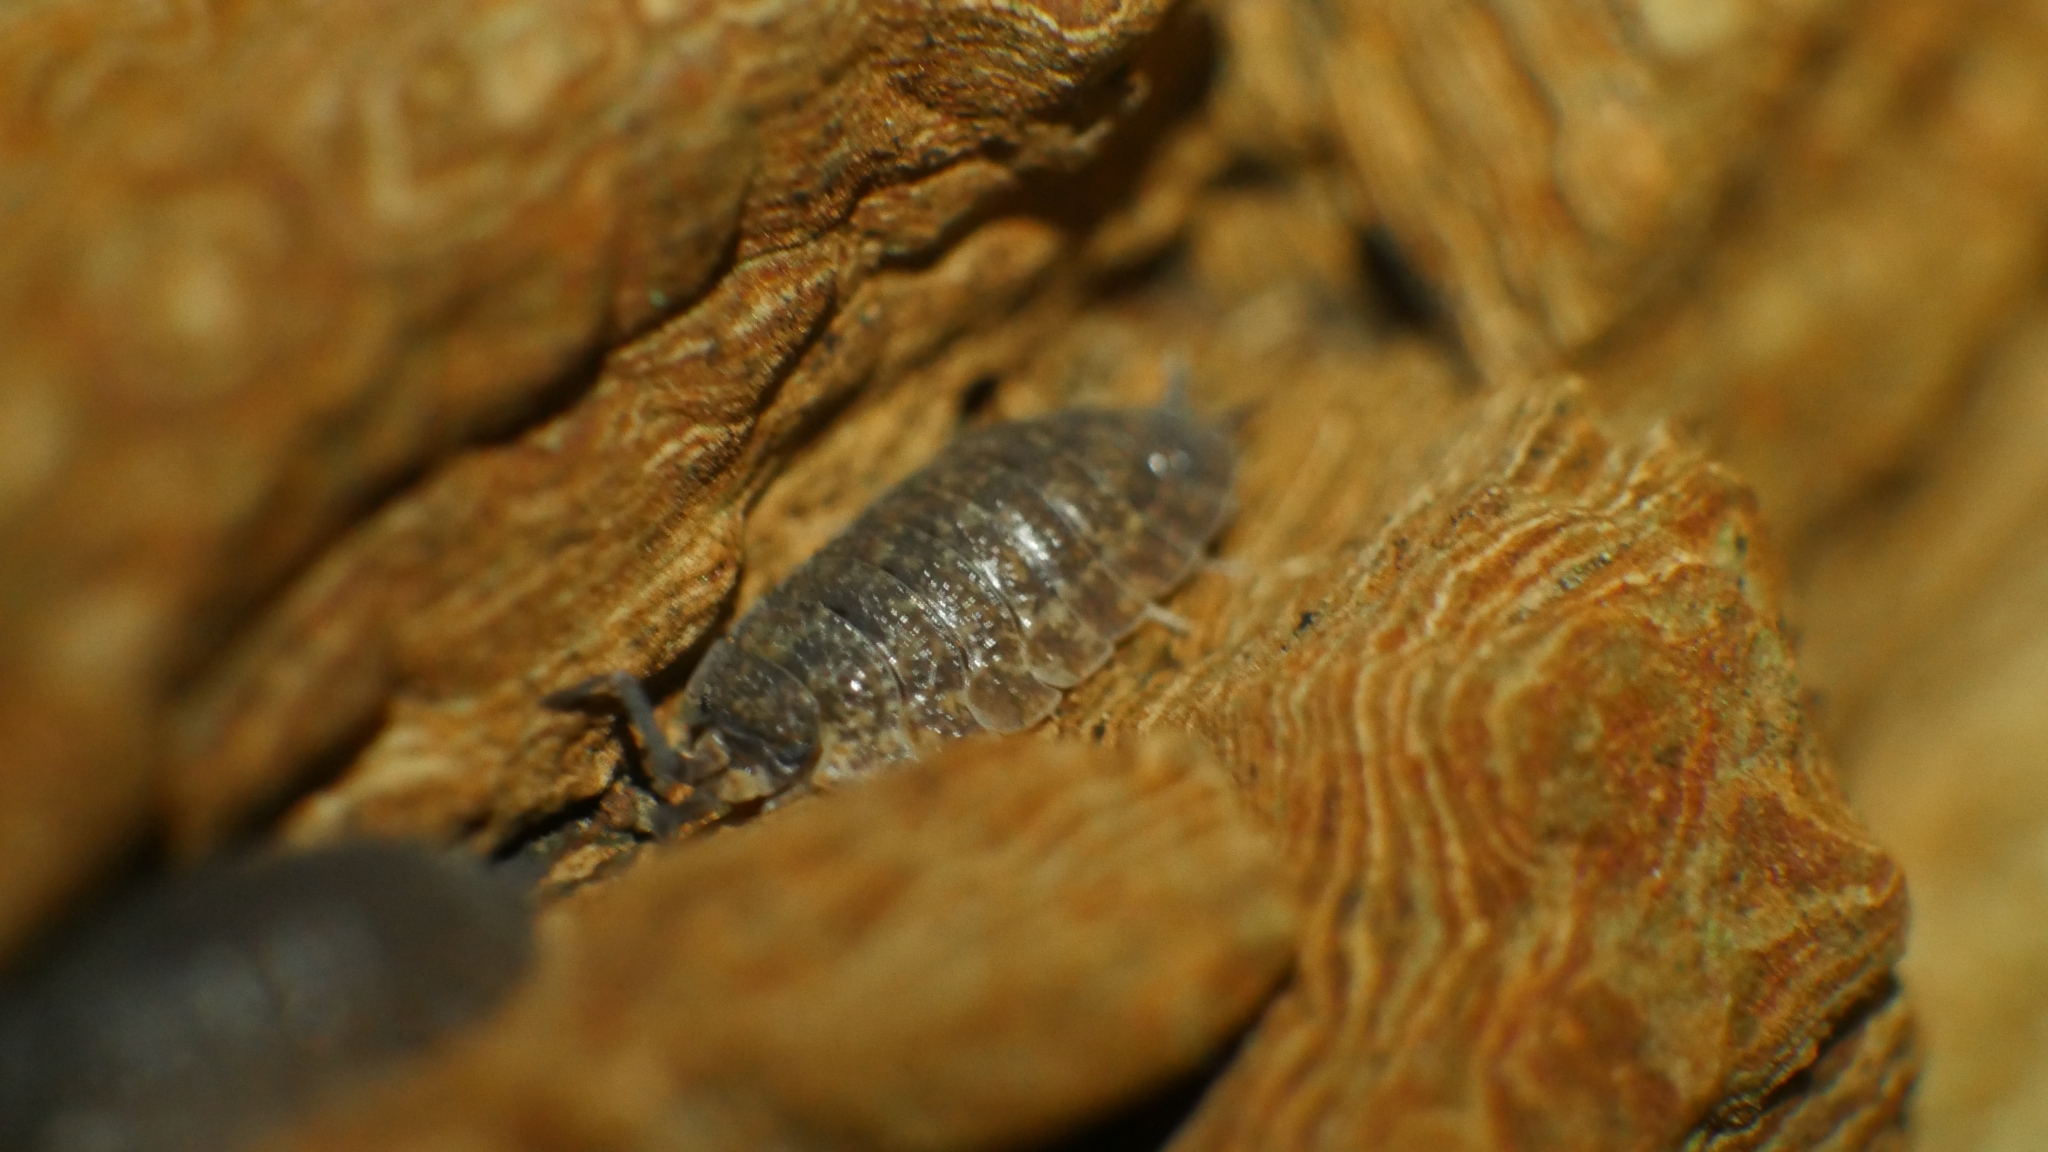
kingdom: Animalia
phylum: Arthropoda
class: Malacostraca
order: Isopoda
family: Porcellionidae
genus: Porcellio
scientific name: Porcellio scaber
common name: Common rough woodlouse
